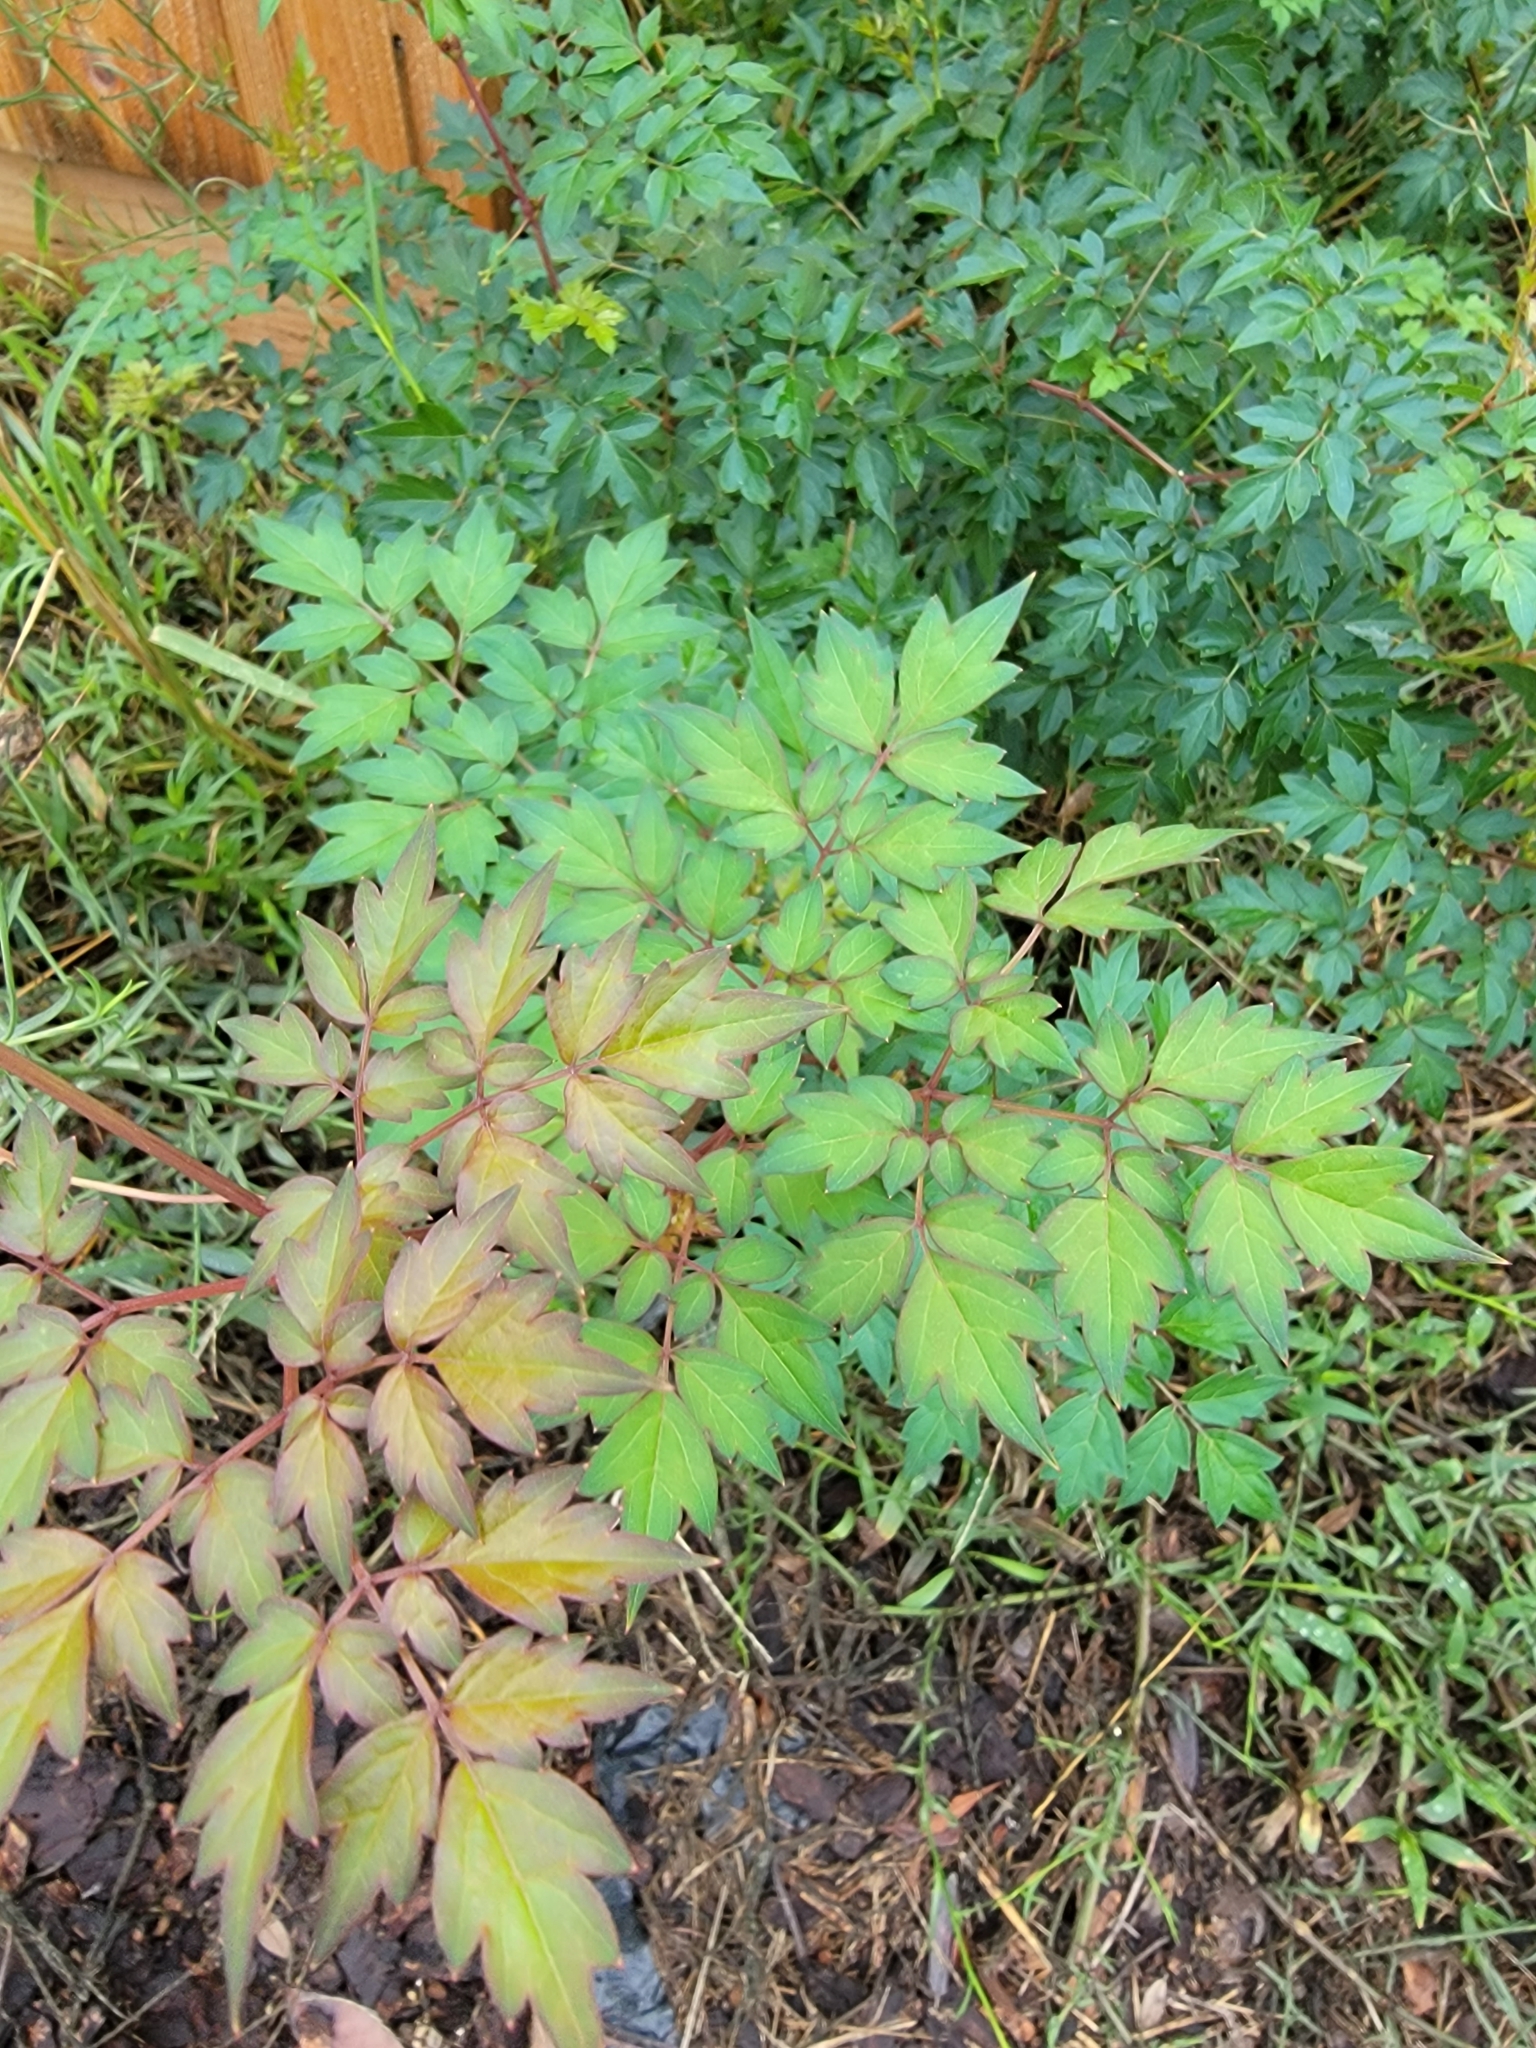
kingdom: Plantae
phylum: Tracheophyta
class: Magnoliopsida
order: Vitales
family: Vitaceae
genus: Nekemias
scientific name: Nekemias arborea
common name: Peppervine
